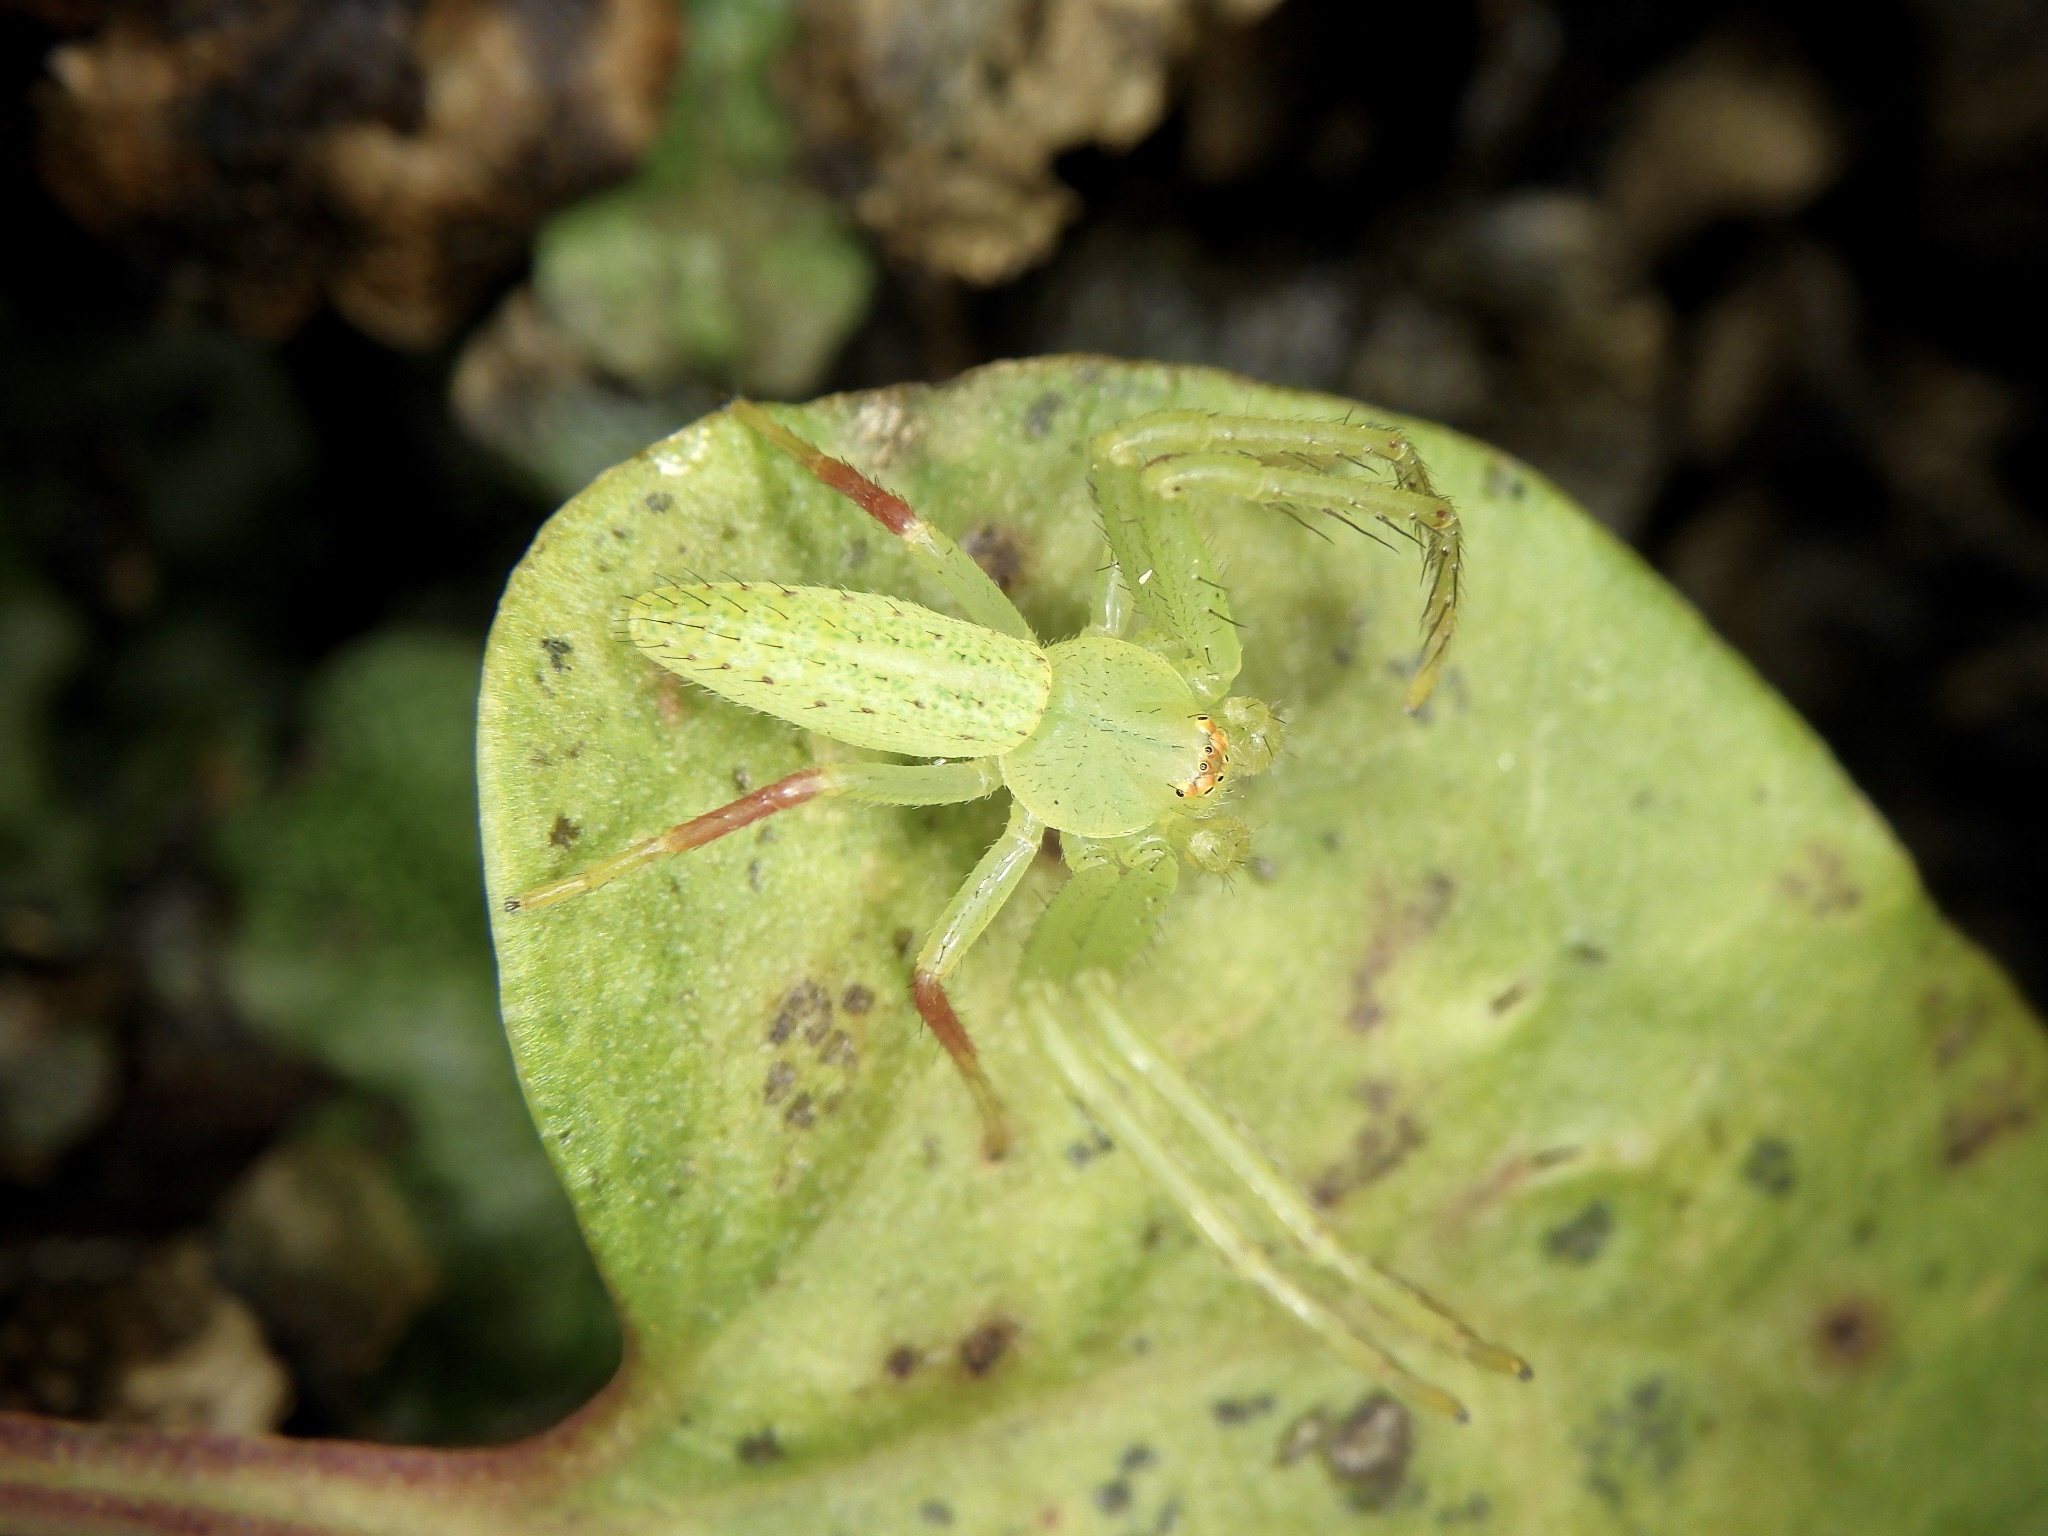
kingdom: Animalia
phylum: Arthropoda
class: Arachnida
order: Araneae
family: Thomisidae
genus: Oxytate
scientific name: Oxytate striatipes
